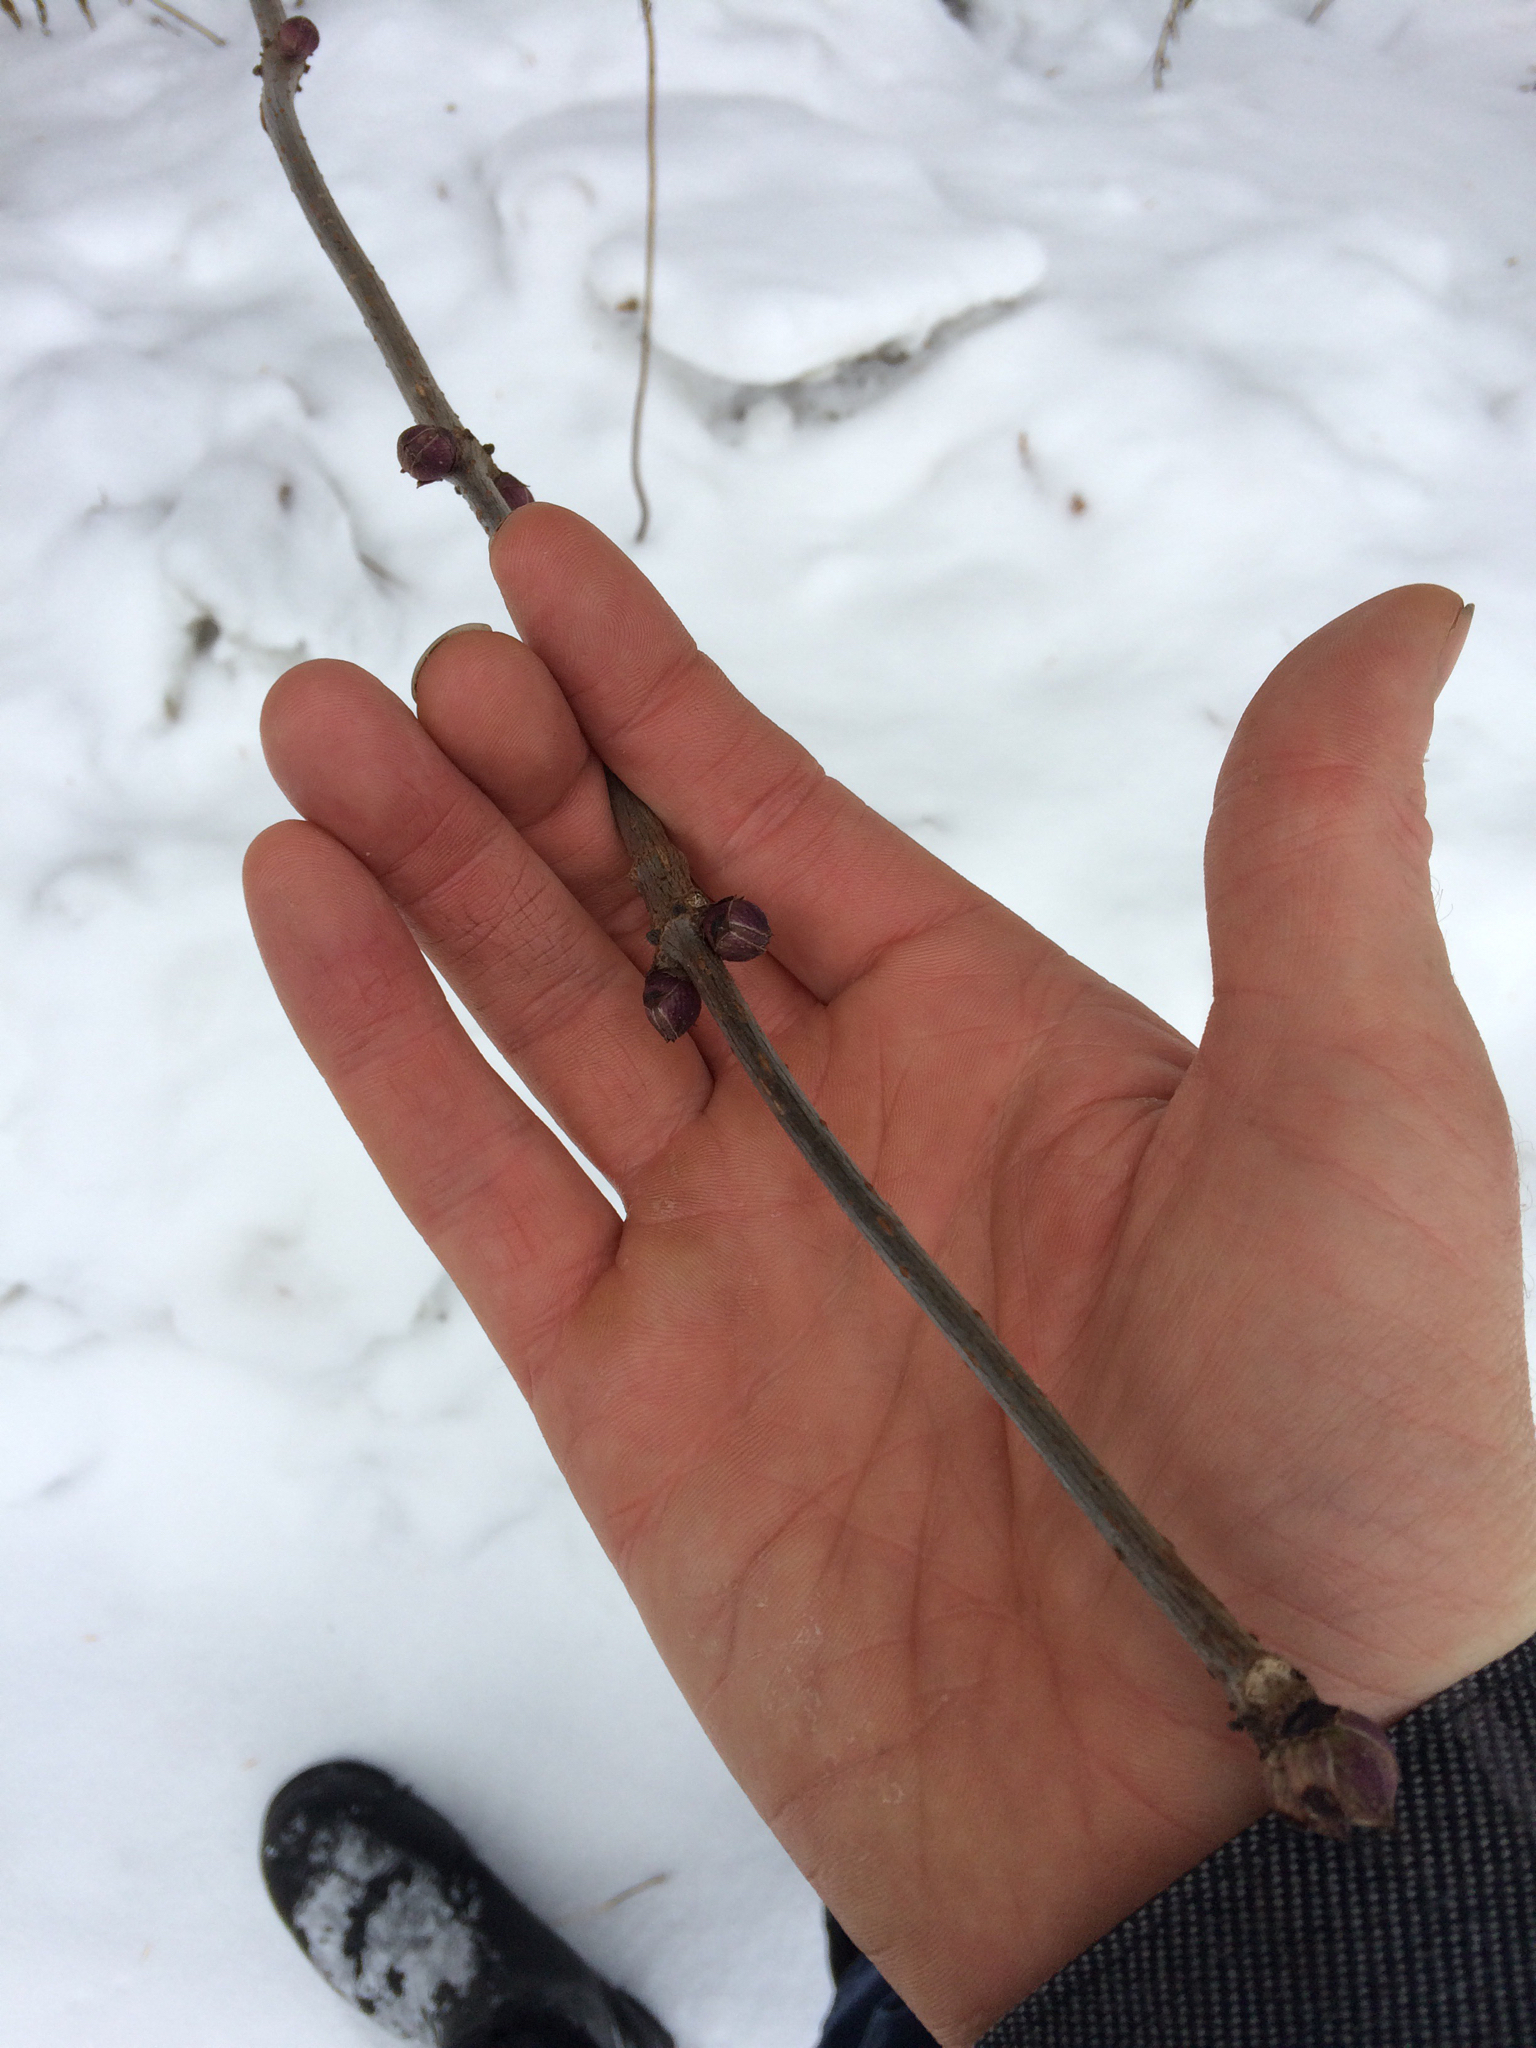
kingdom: Plantae
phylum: Tracheophyta
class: Magnoliopsida
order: Dipsacales
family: Viburnaceae
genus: Sambucus
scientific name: Sambucus racemosa
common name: Red-berried elder
